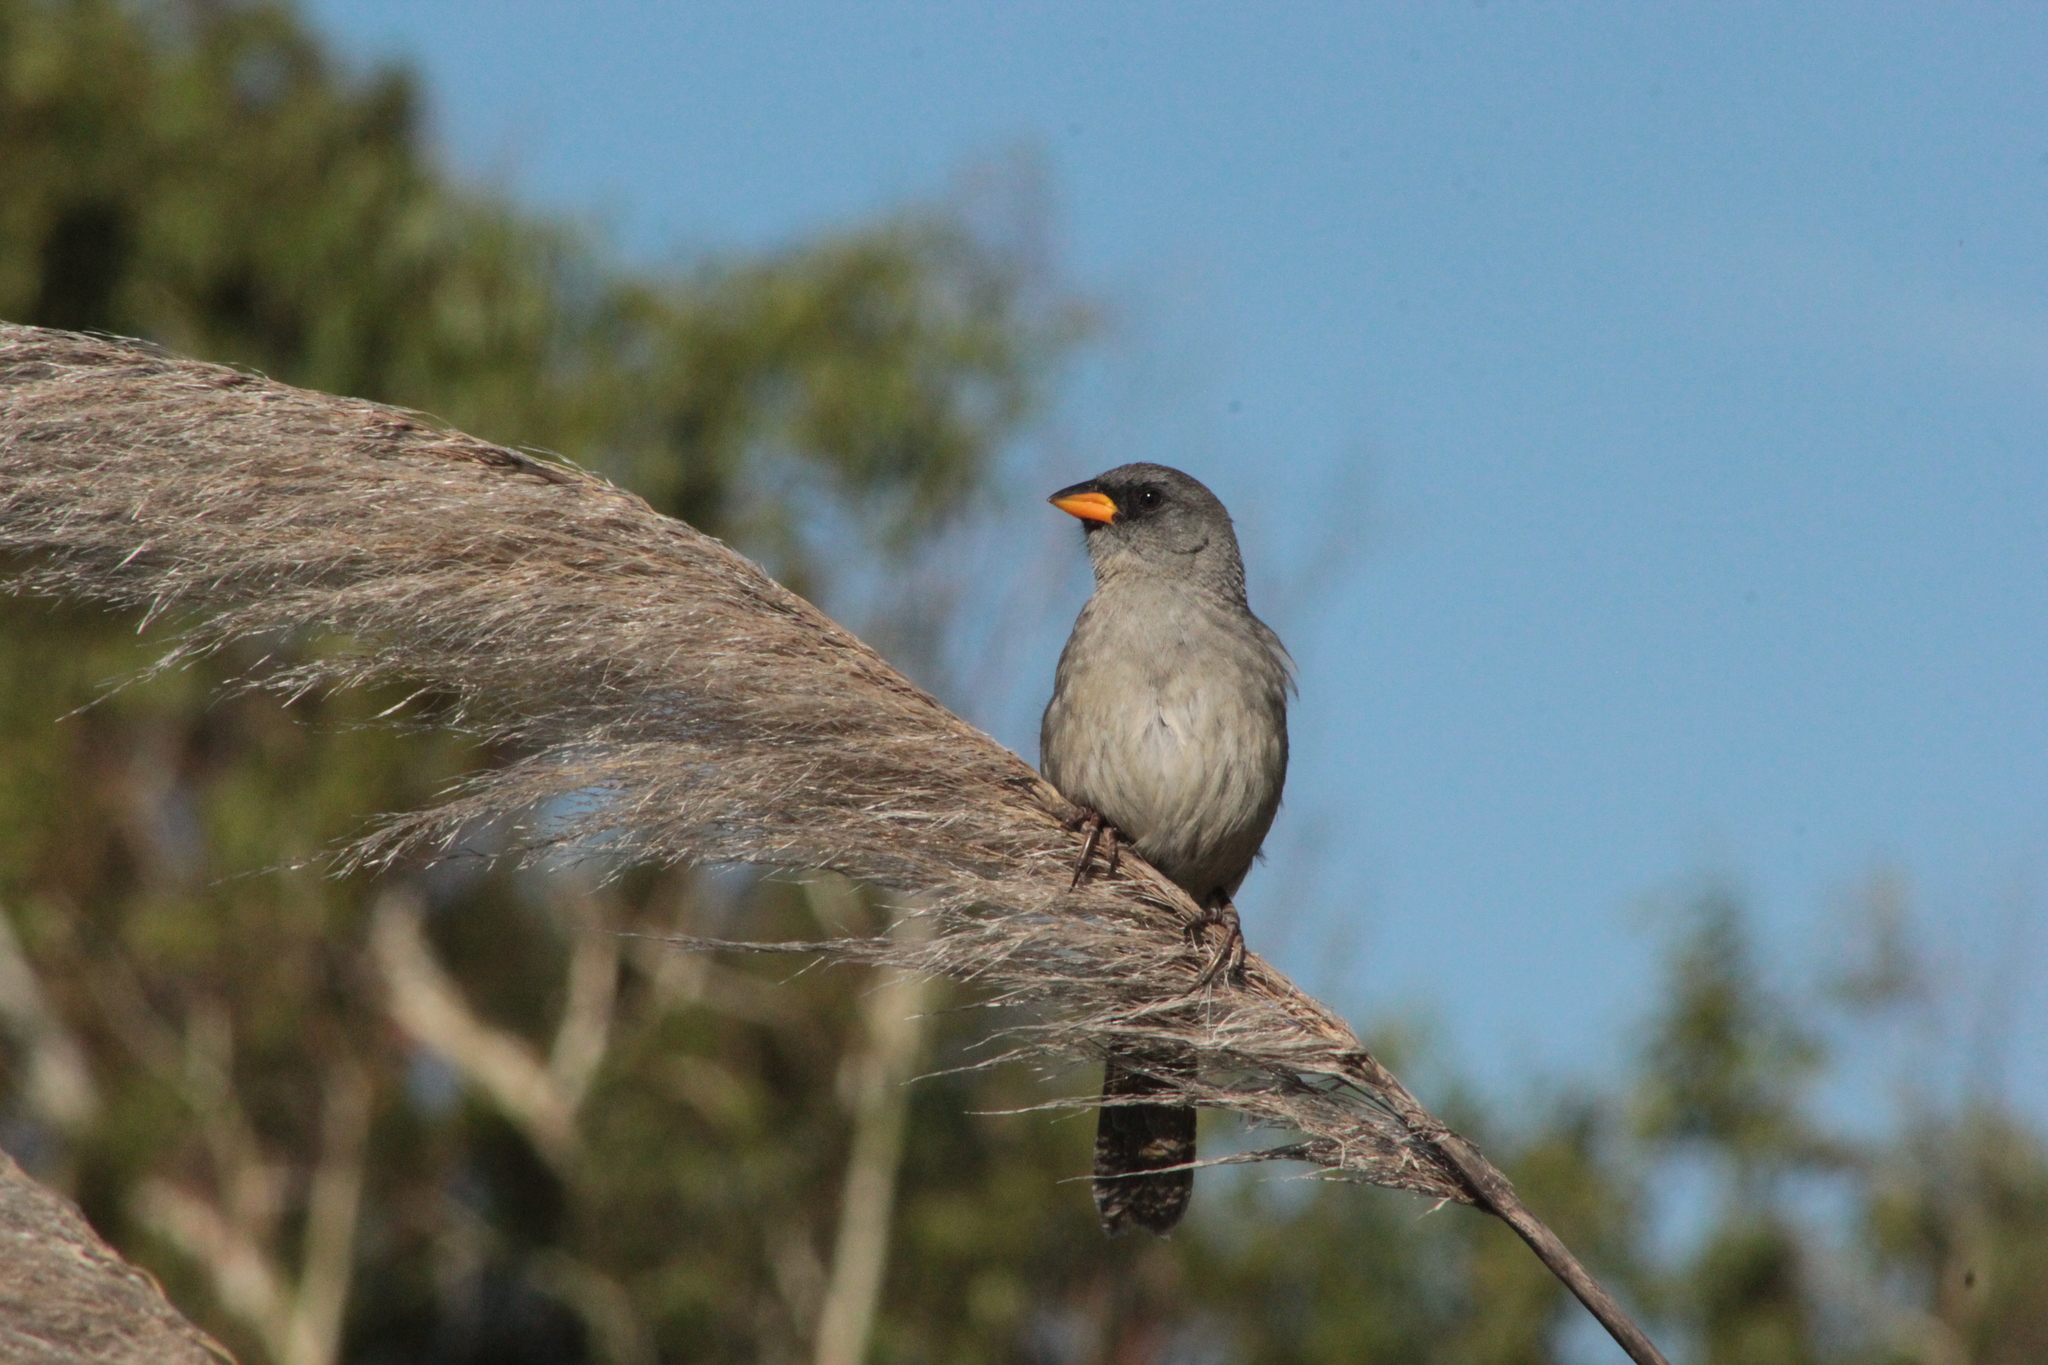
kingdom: Animalia
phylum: Chordata
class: Aves
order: Passeriformes
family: Thraupidae
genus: Embernagra
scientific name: Embernagra platensis
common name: Pampa finch
